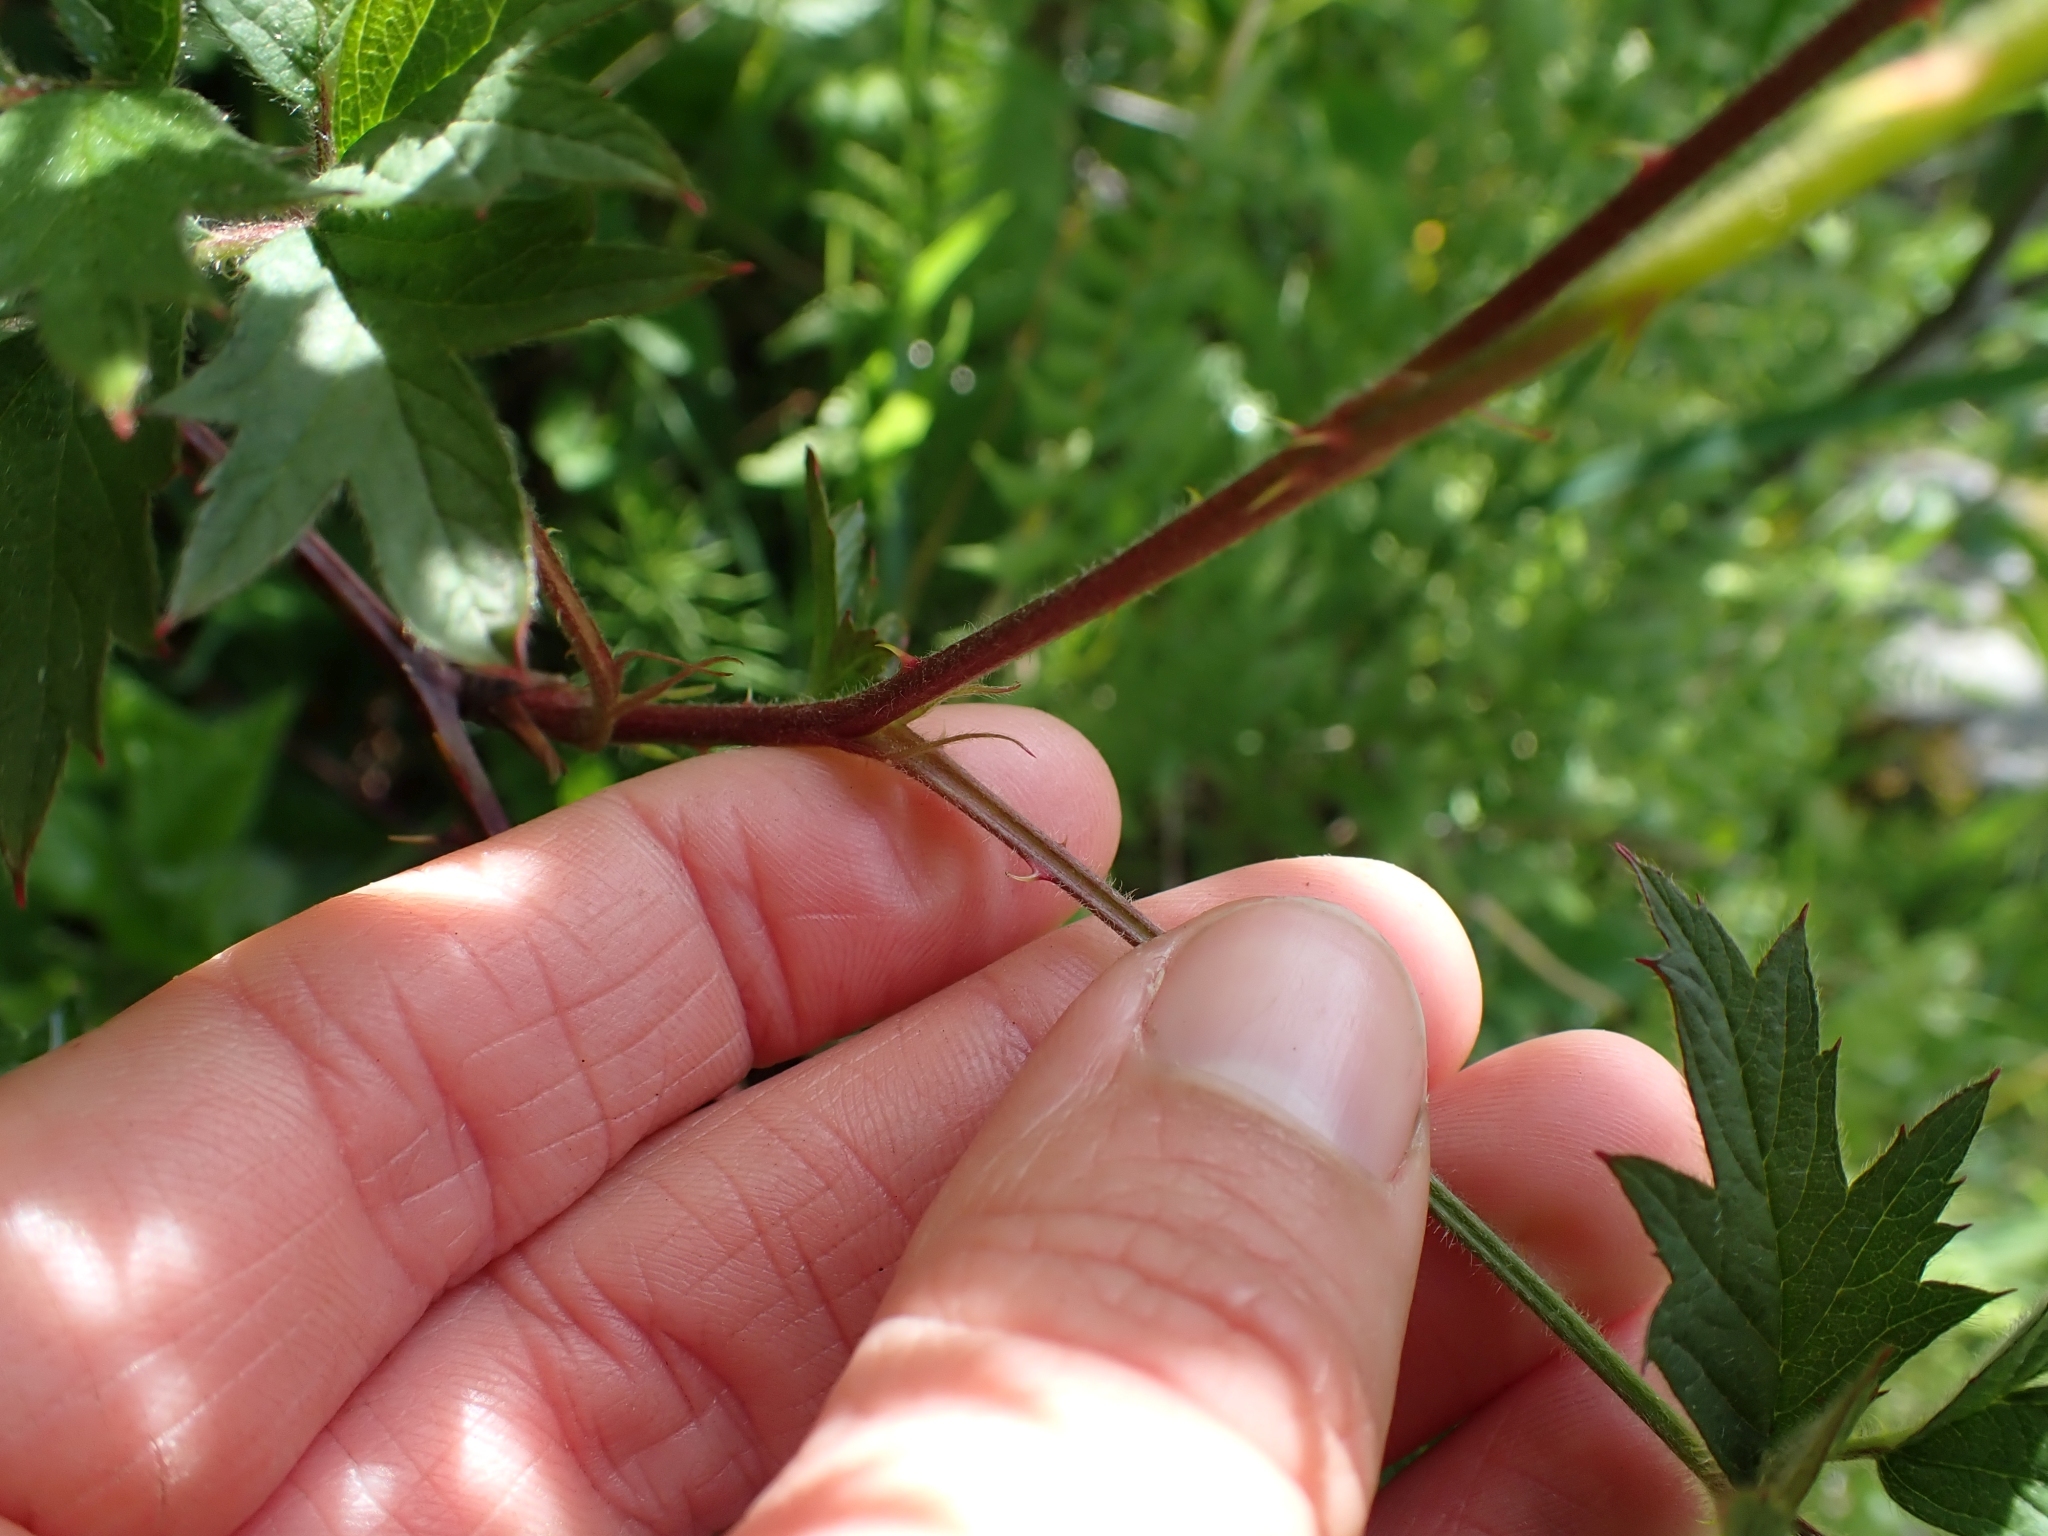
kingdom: Plantae
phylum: Tracheophyta
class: Magnoliopsida
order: Rosales
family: Rosaceae
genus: Rubus
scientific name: Rubus laciniatus
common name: Evergreen blackberry
